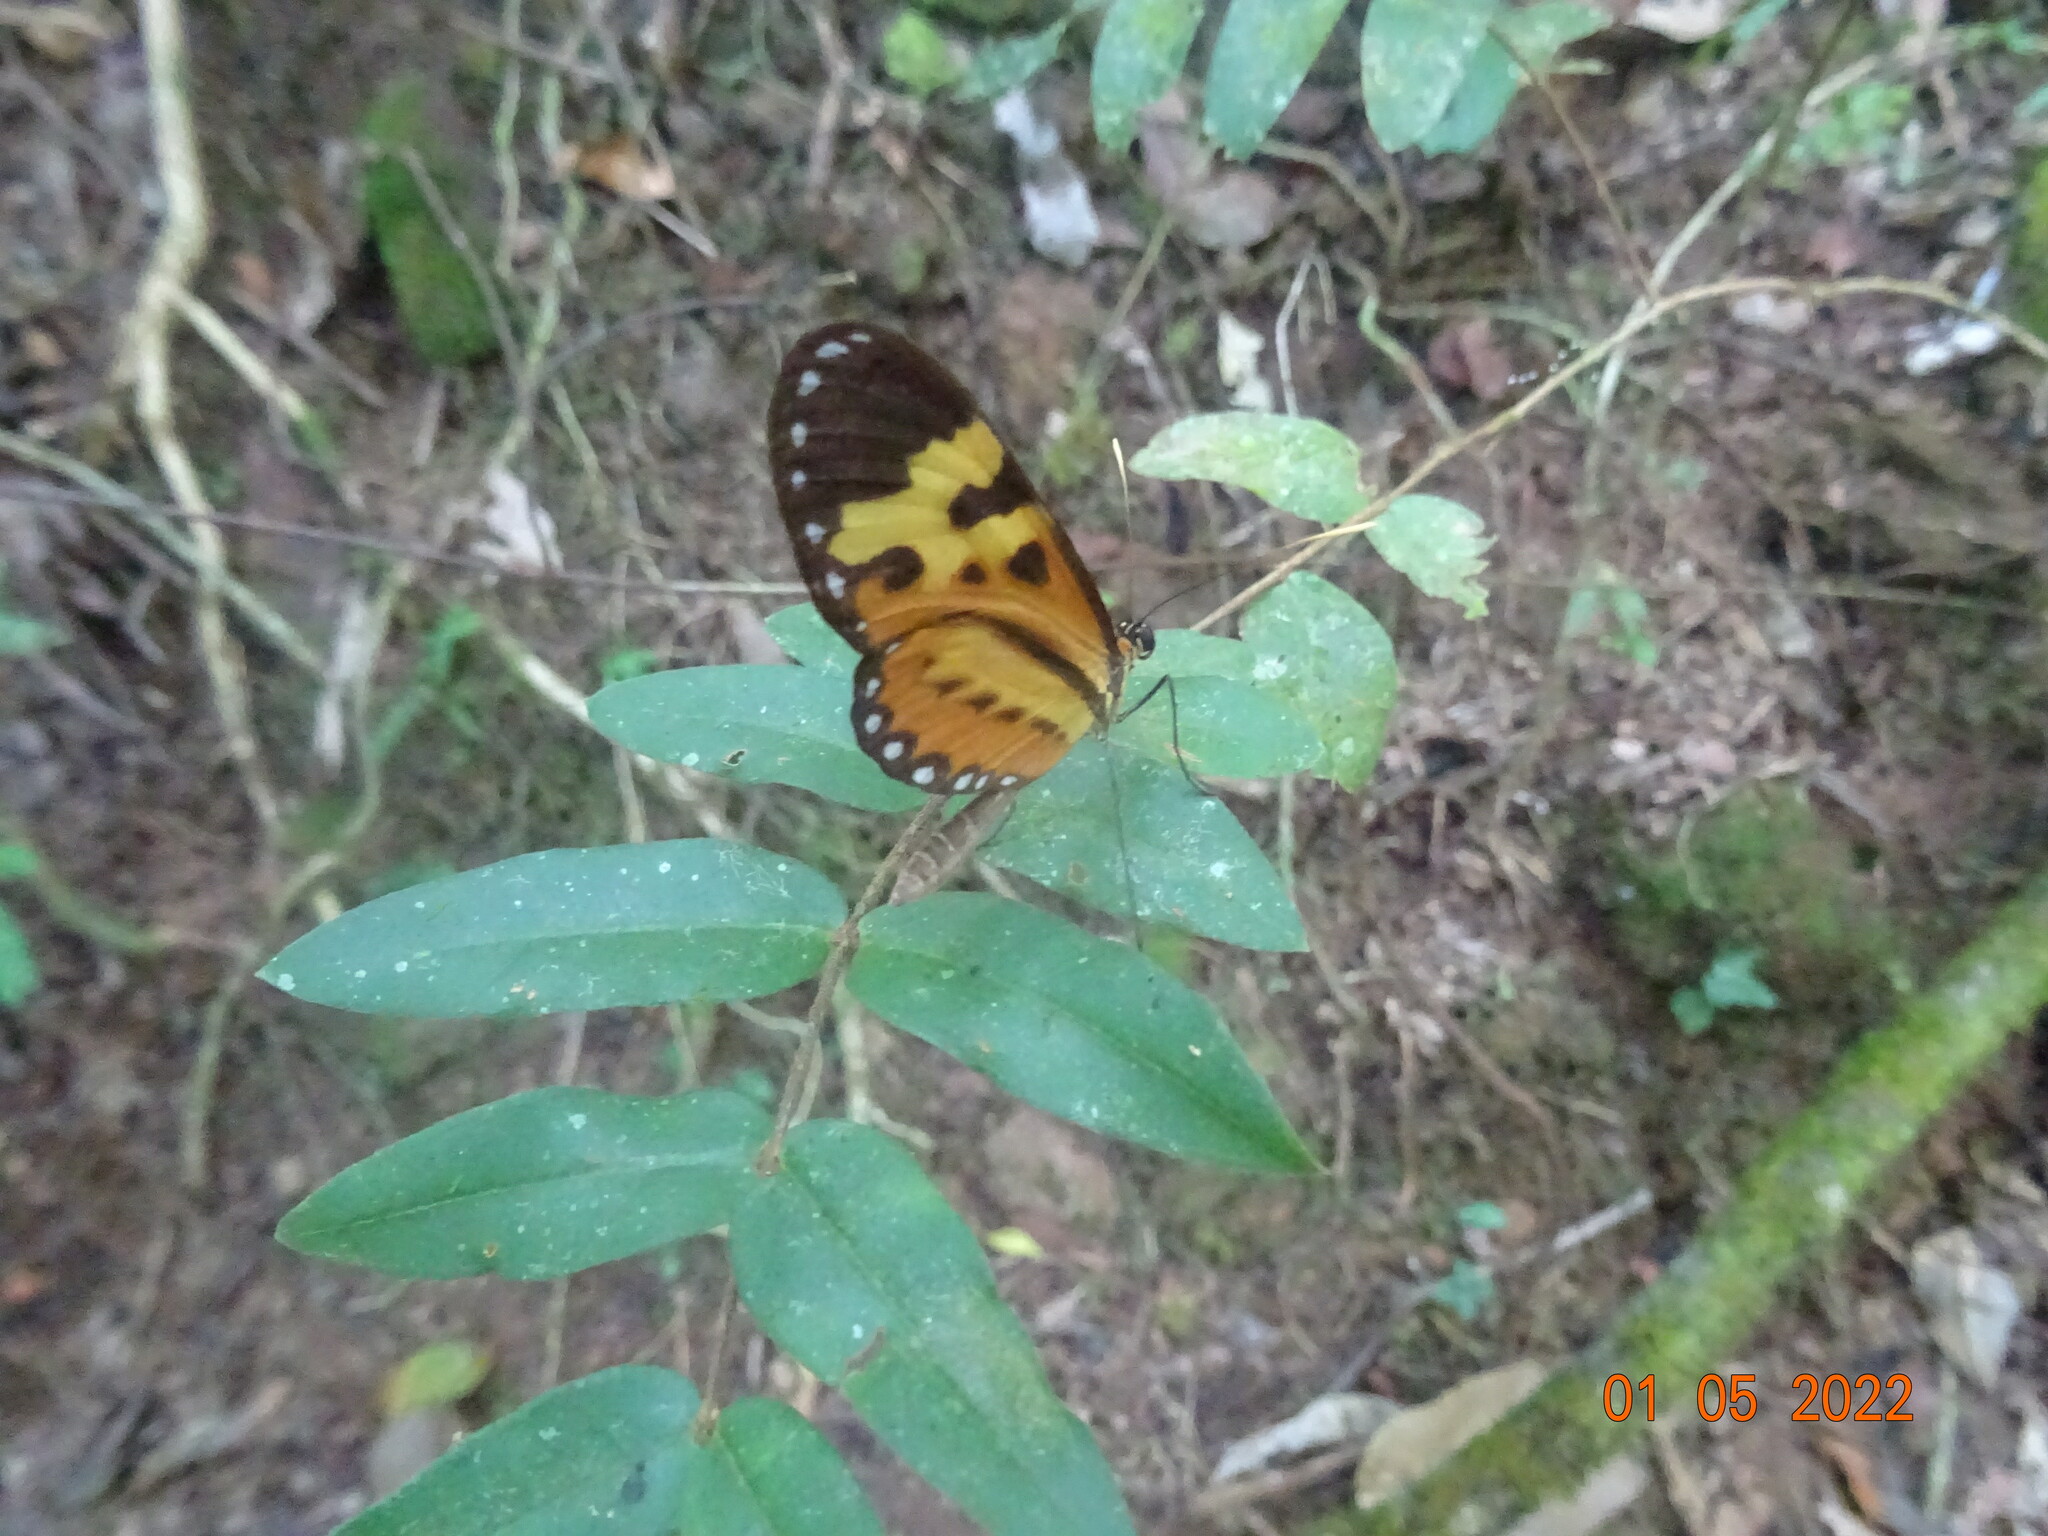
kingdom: Animalia
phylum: Arthropoda
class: Insecta
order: Lepidoptera
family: Nymphalidae
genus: Mechanitis
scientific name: Mechanitis polymnia
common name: Disturbed tigerwing
